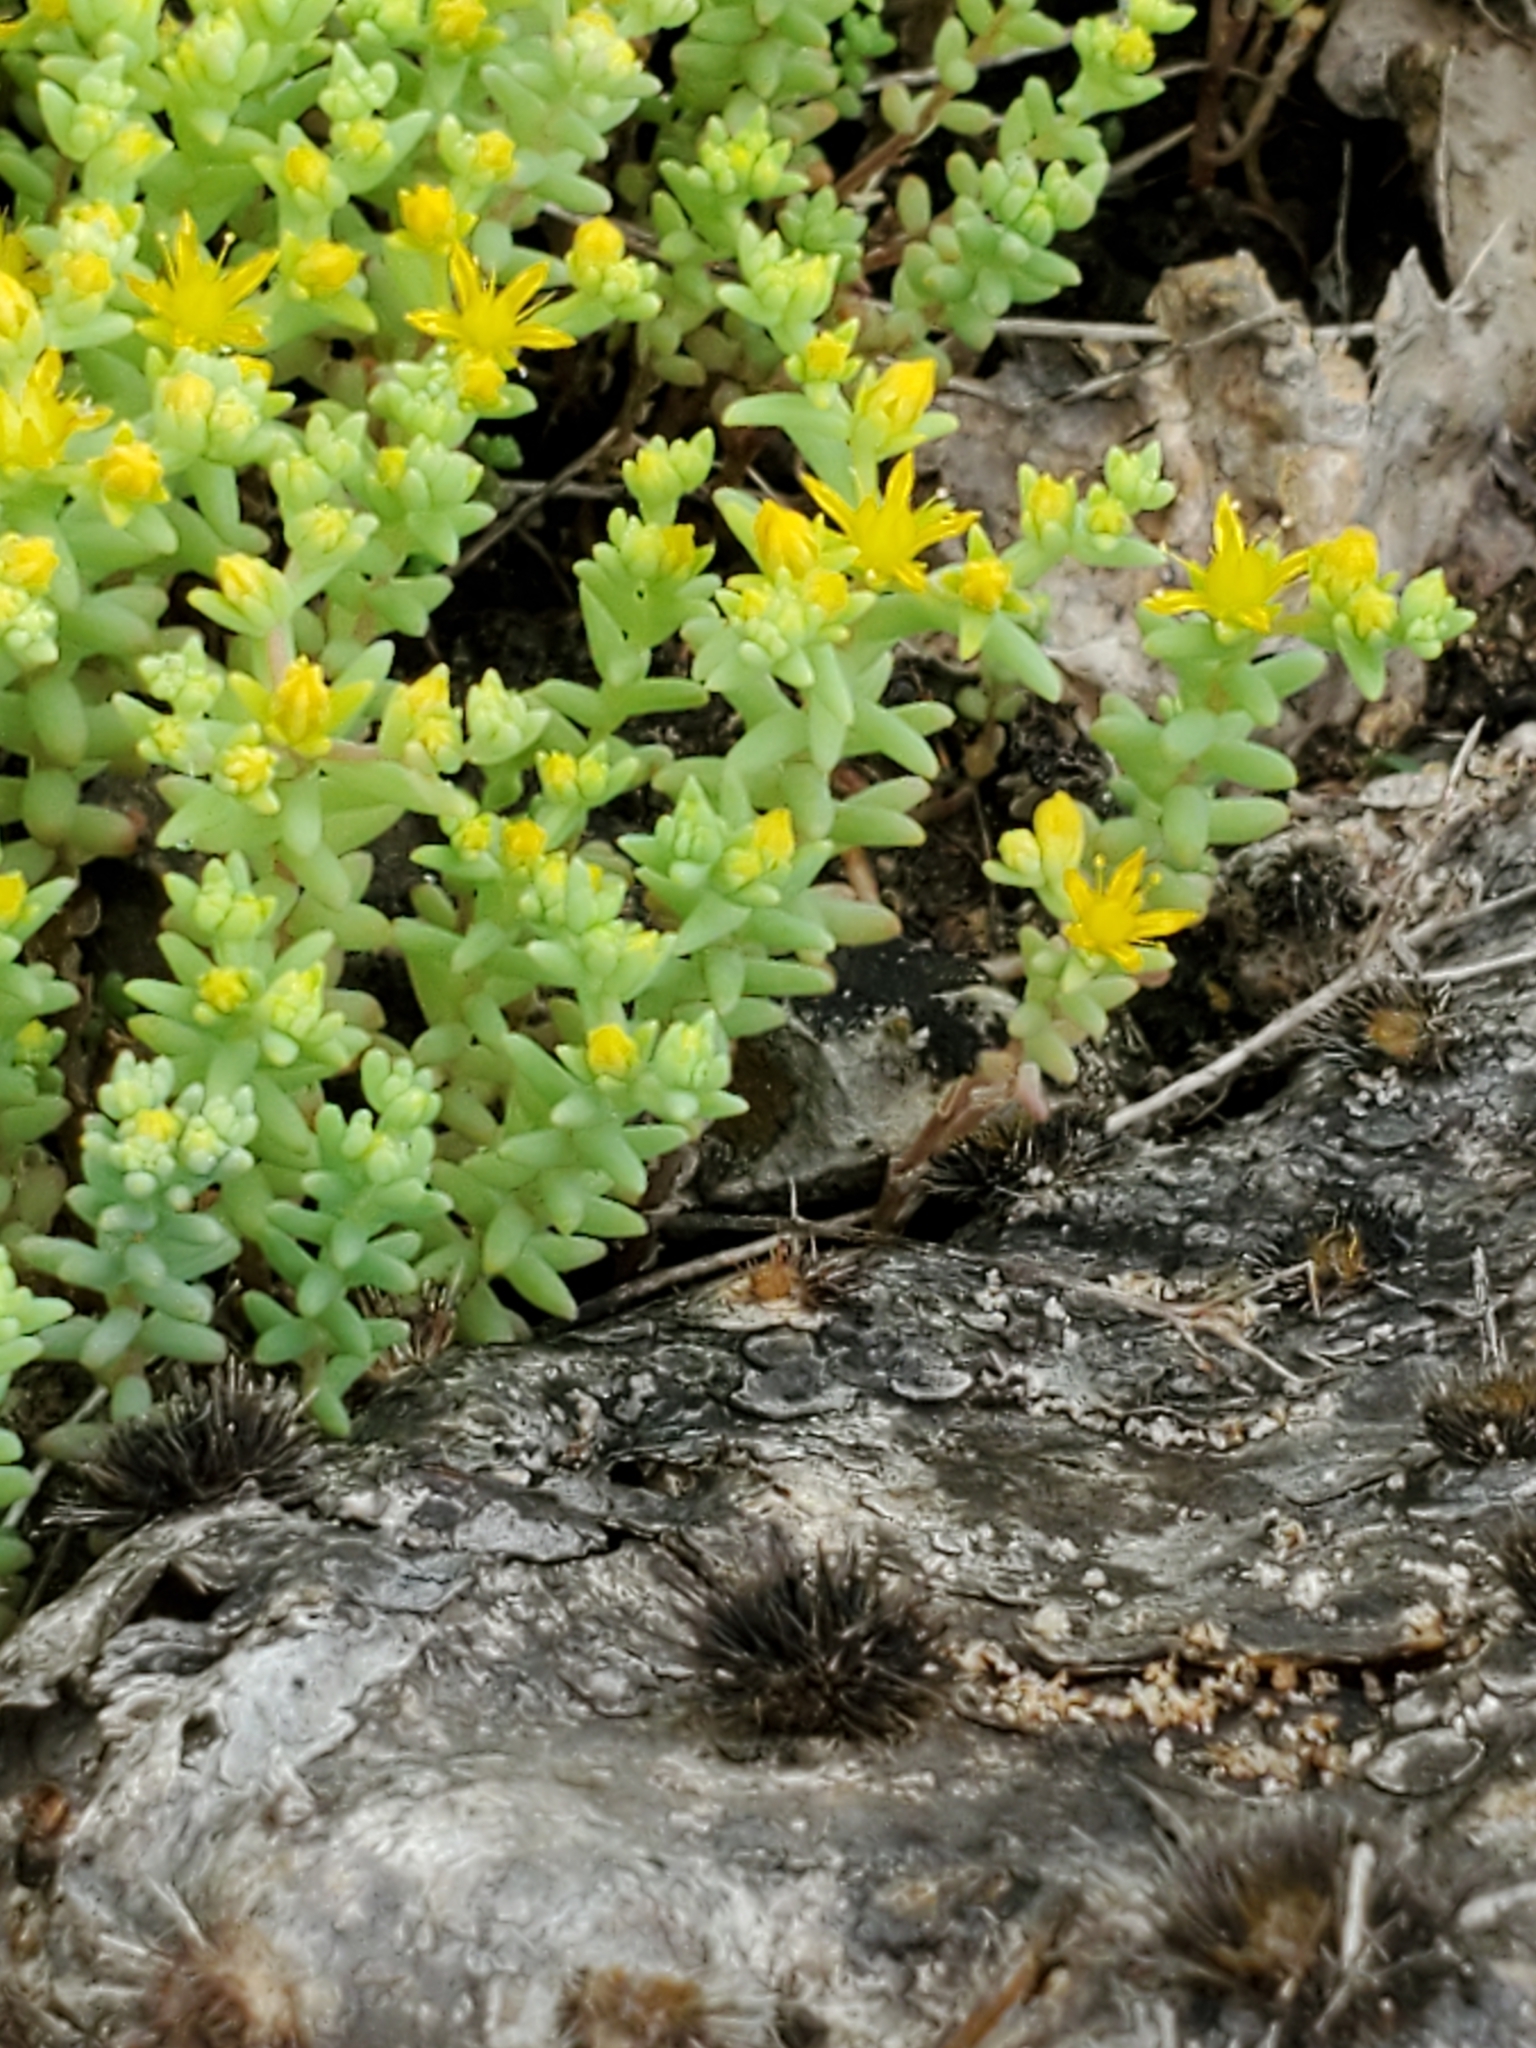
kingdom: Plantae
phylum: Tracheophyta
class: Magnoliopsida
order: Saxifragales
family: Crassulaceae
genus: Sedum
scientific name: Sedum nuttallii
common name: Yellow stonecrop
